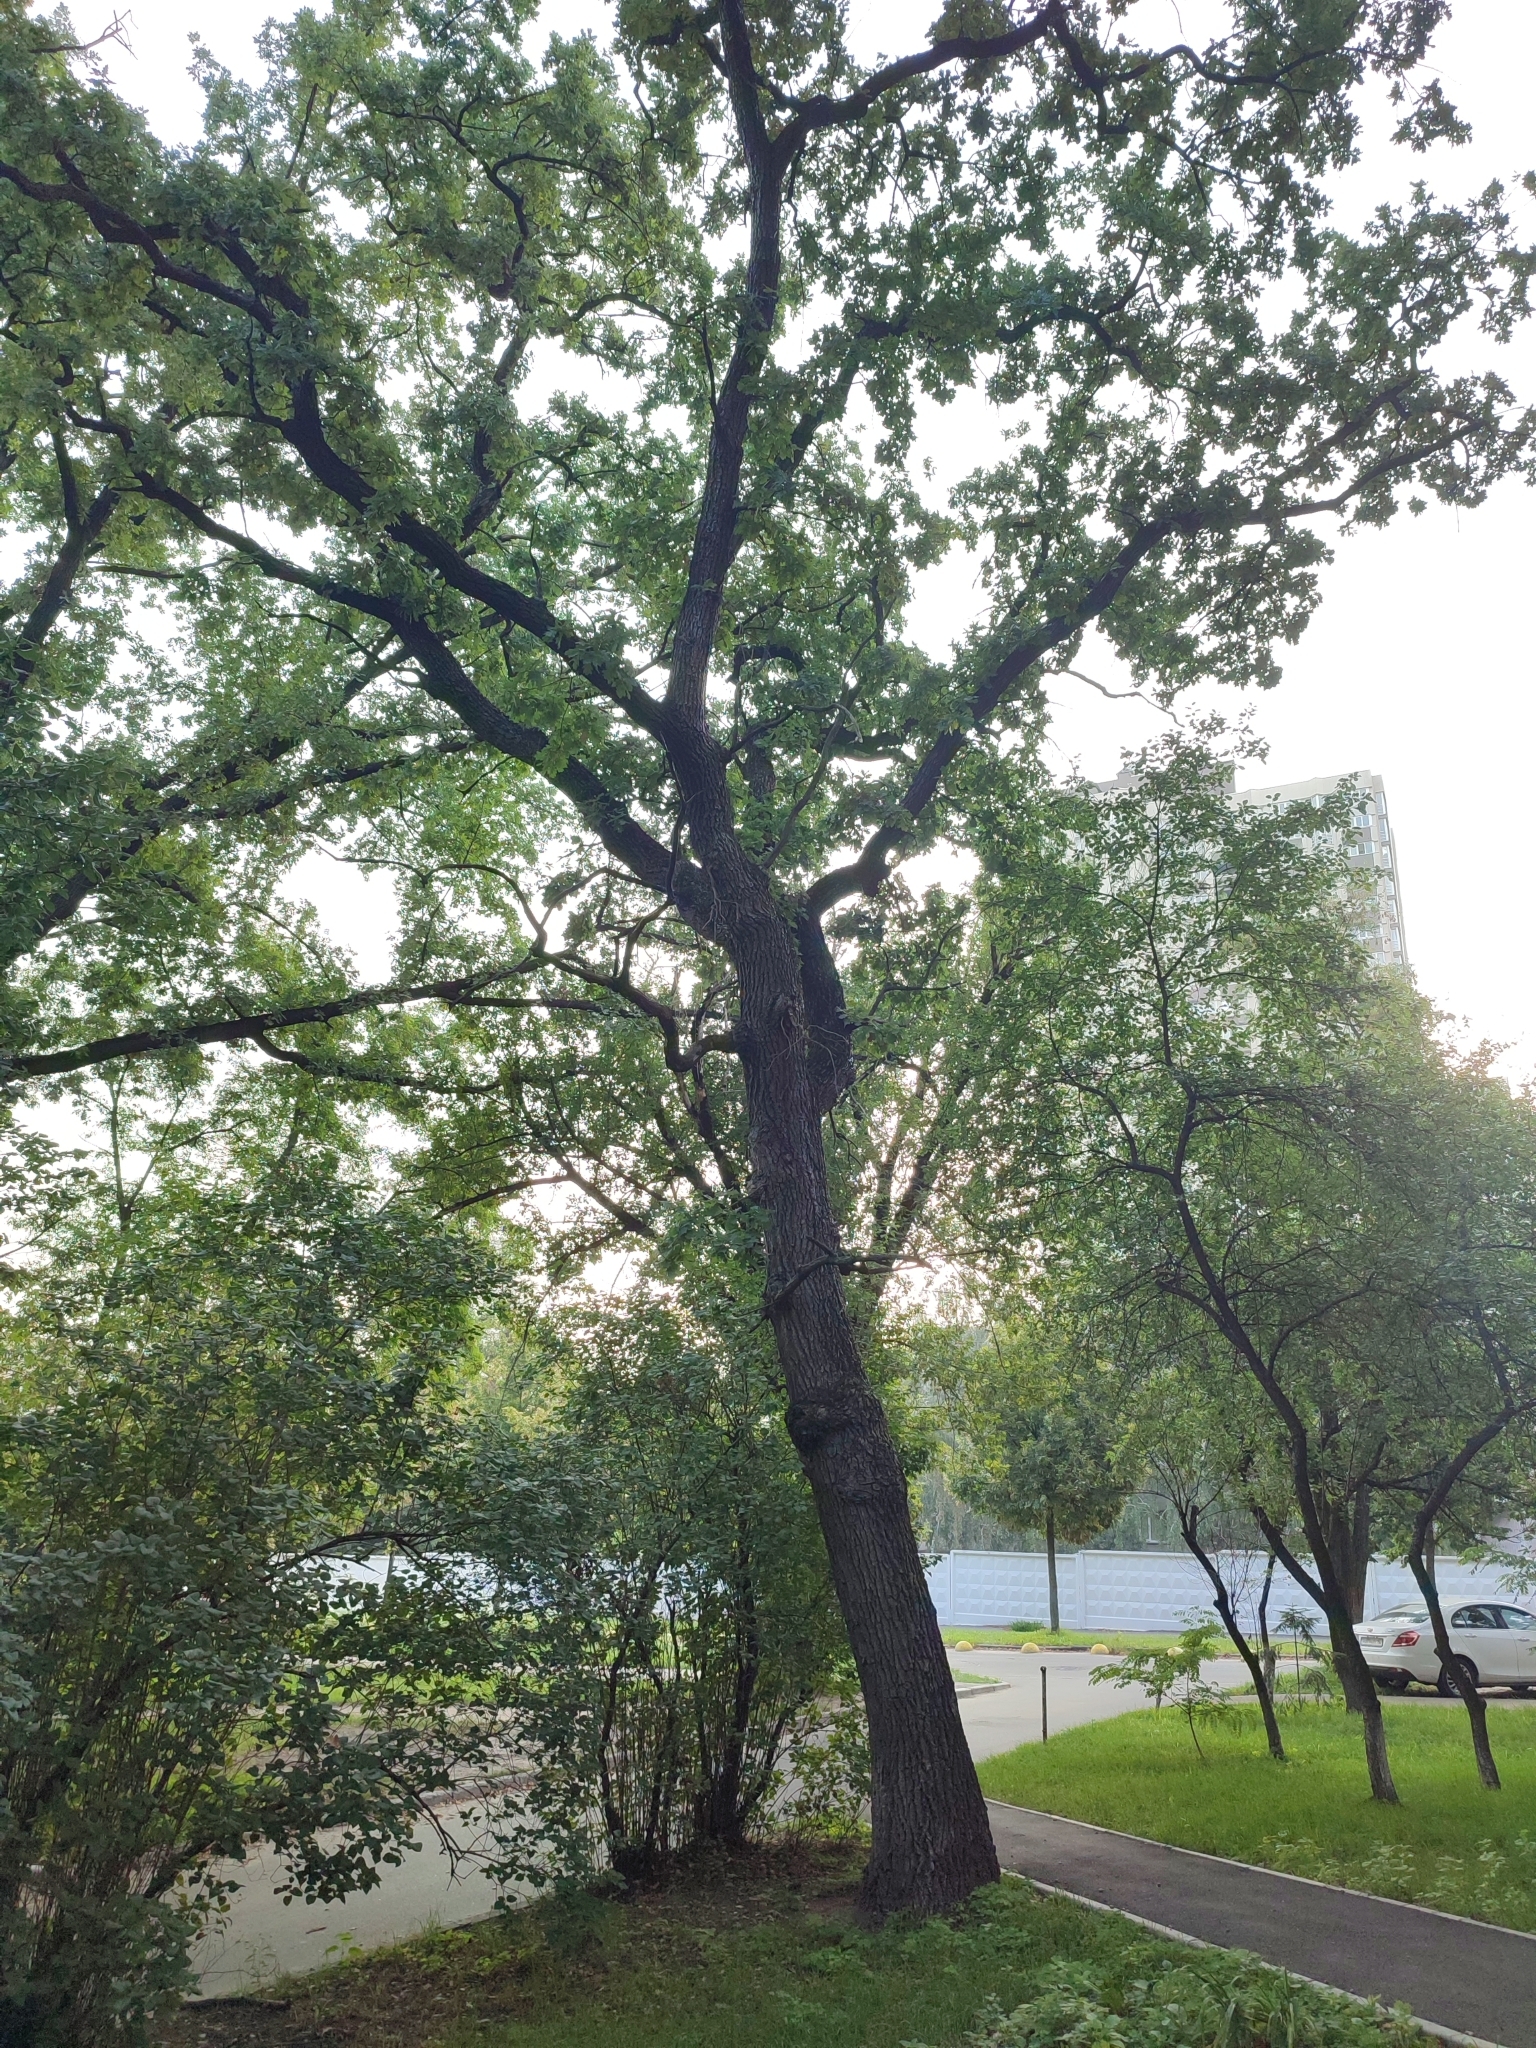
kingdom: Plantae
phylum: Tracheophyta
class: Magnoliopsida
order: Fagales
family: Fagaceae
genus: Quercus
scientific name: Quercus robur
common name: Pedunculate oak
